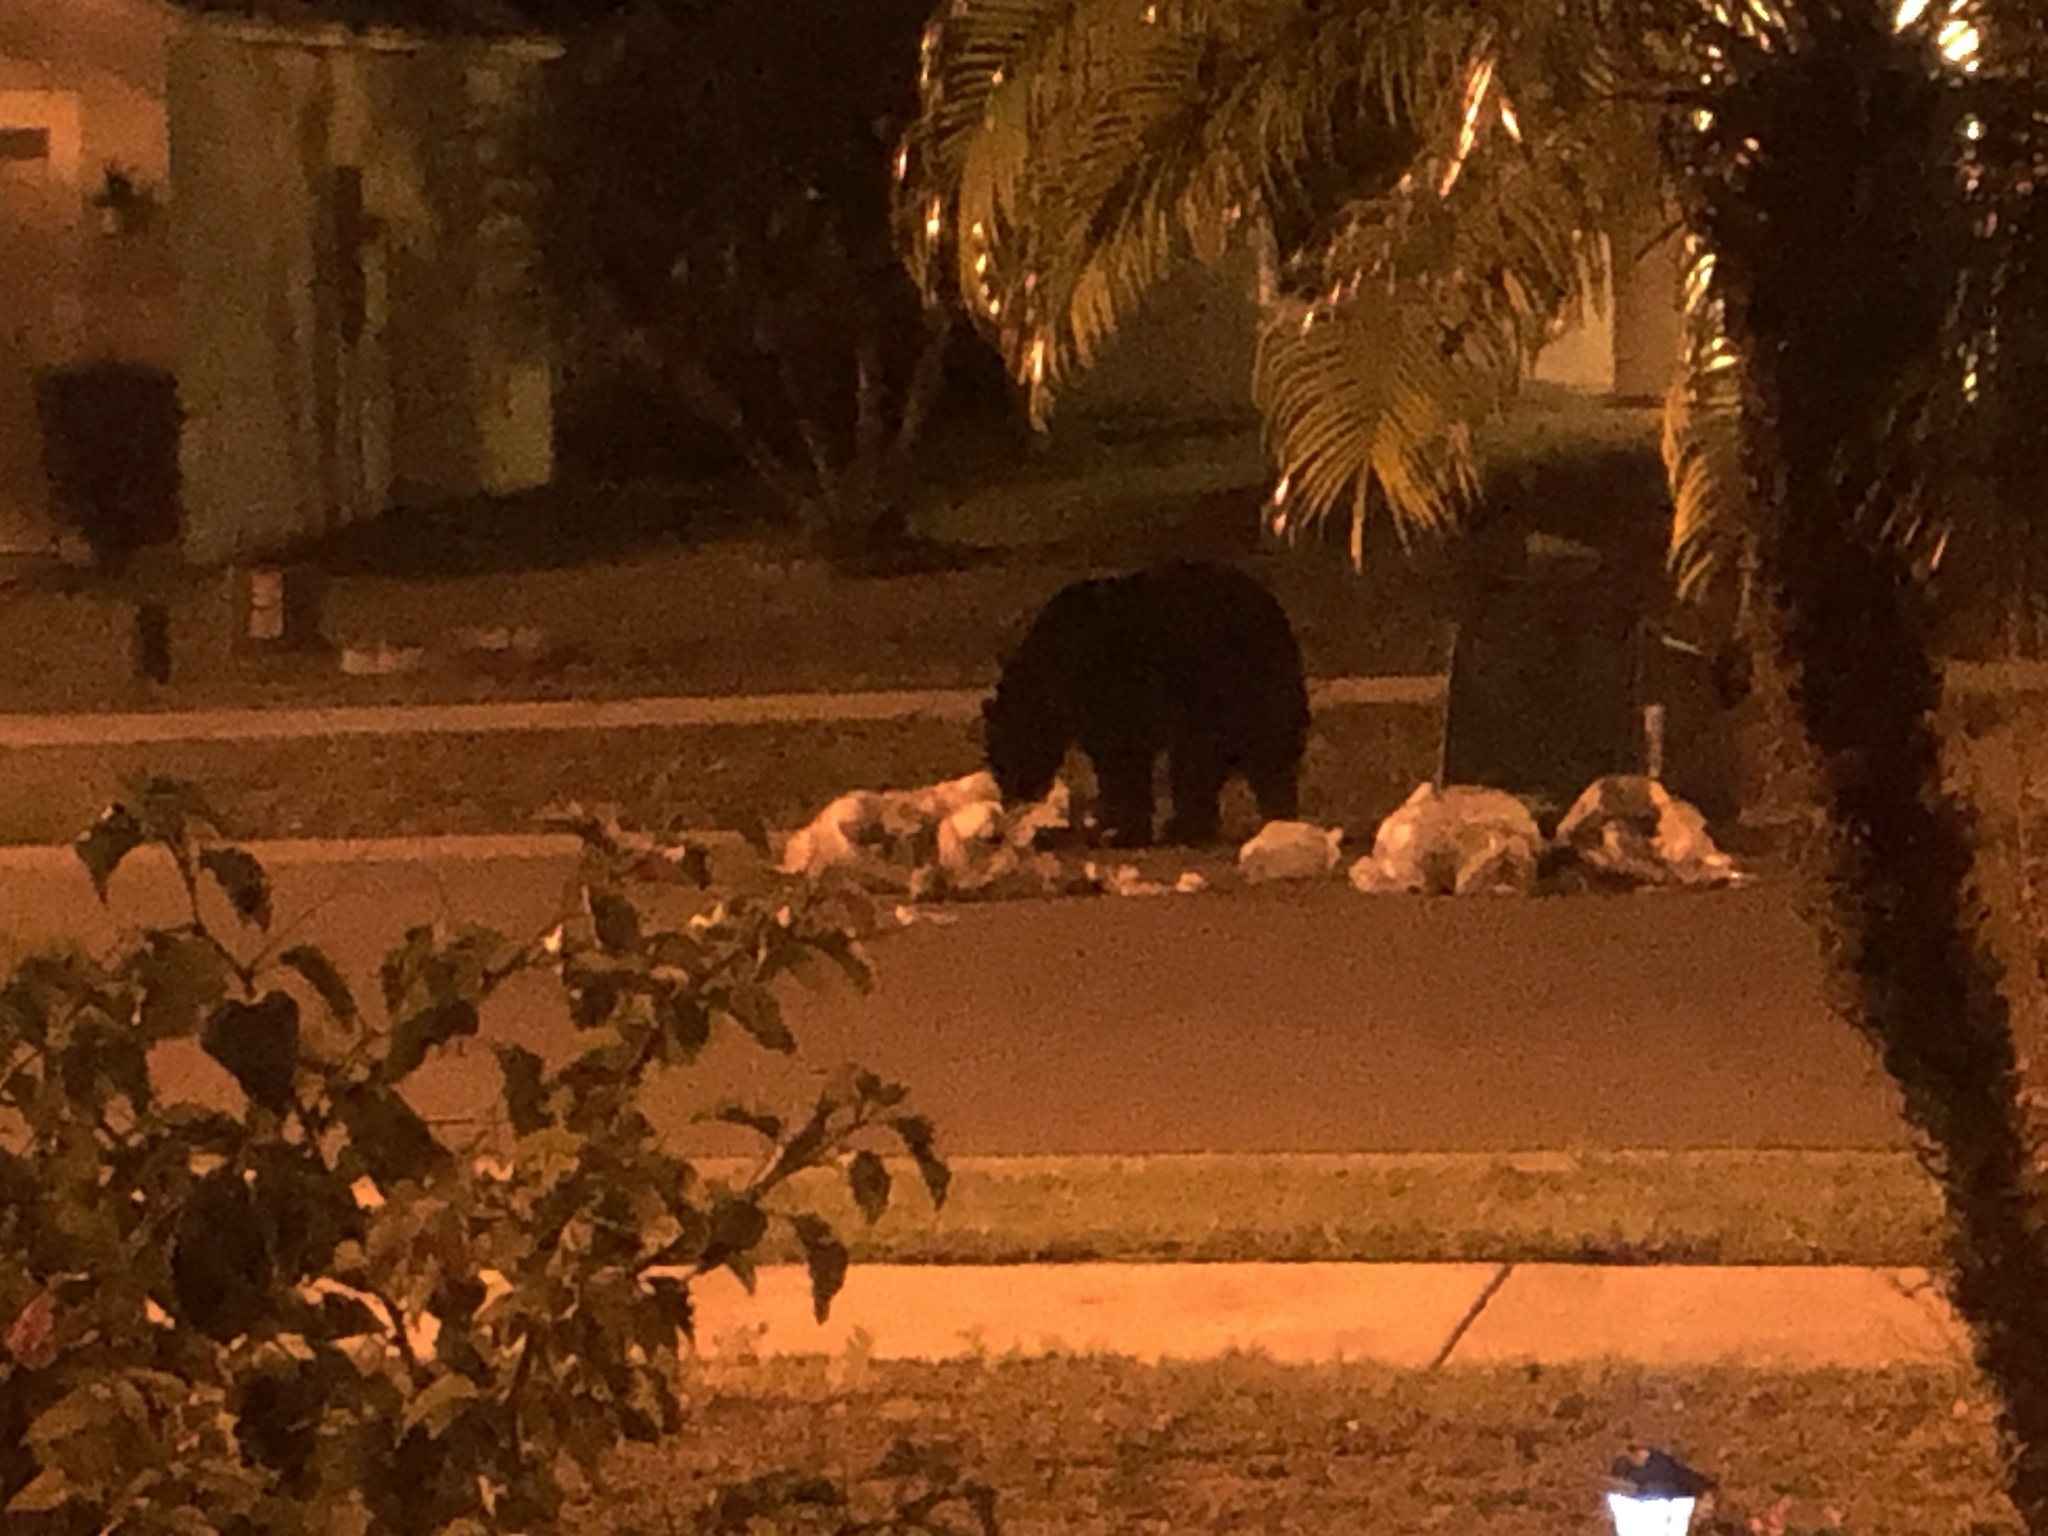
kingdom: Animalia
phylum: Chordata
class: Mammalia
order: Carnivora
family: Ursidae
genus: Ursus
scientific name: Ursus americanus
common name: American black bear
